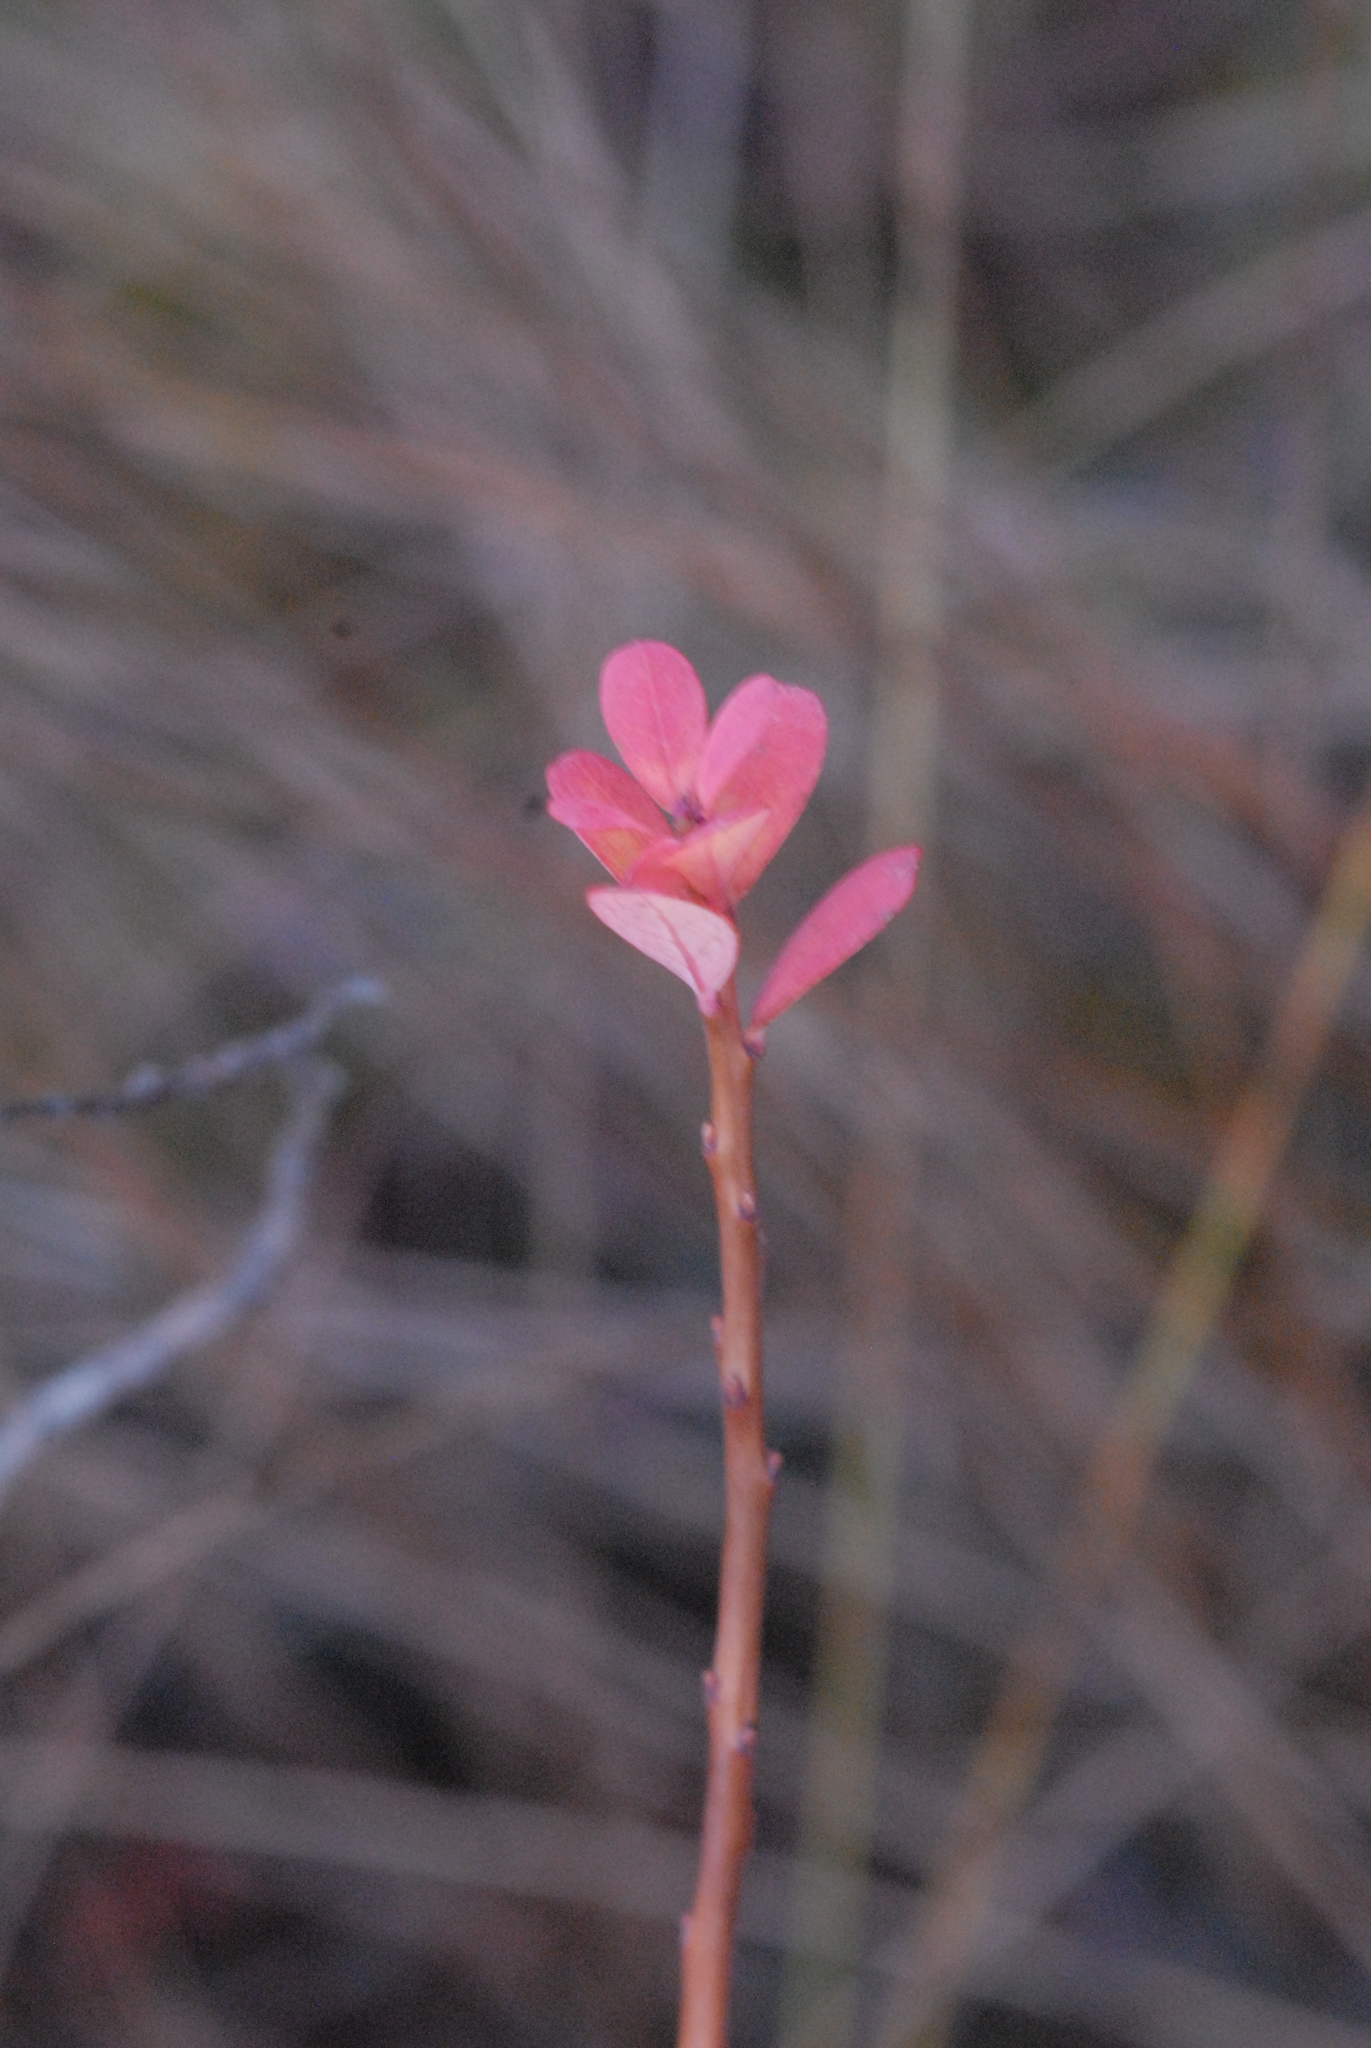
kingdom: Plantae
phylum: Tracheophyta
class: Magnoliopsida
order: Ericales
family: Ericaceae
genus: Vaccinium
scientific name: Vaccinium uliginosum
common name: Bog bilberry
